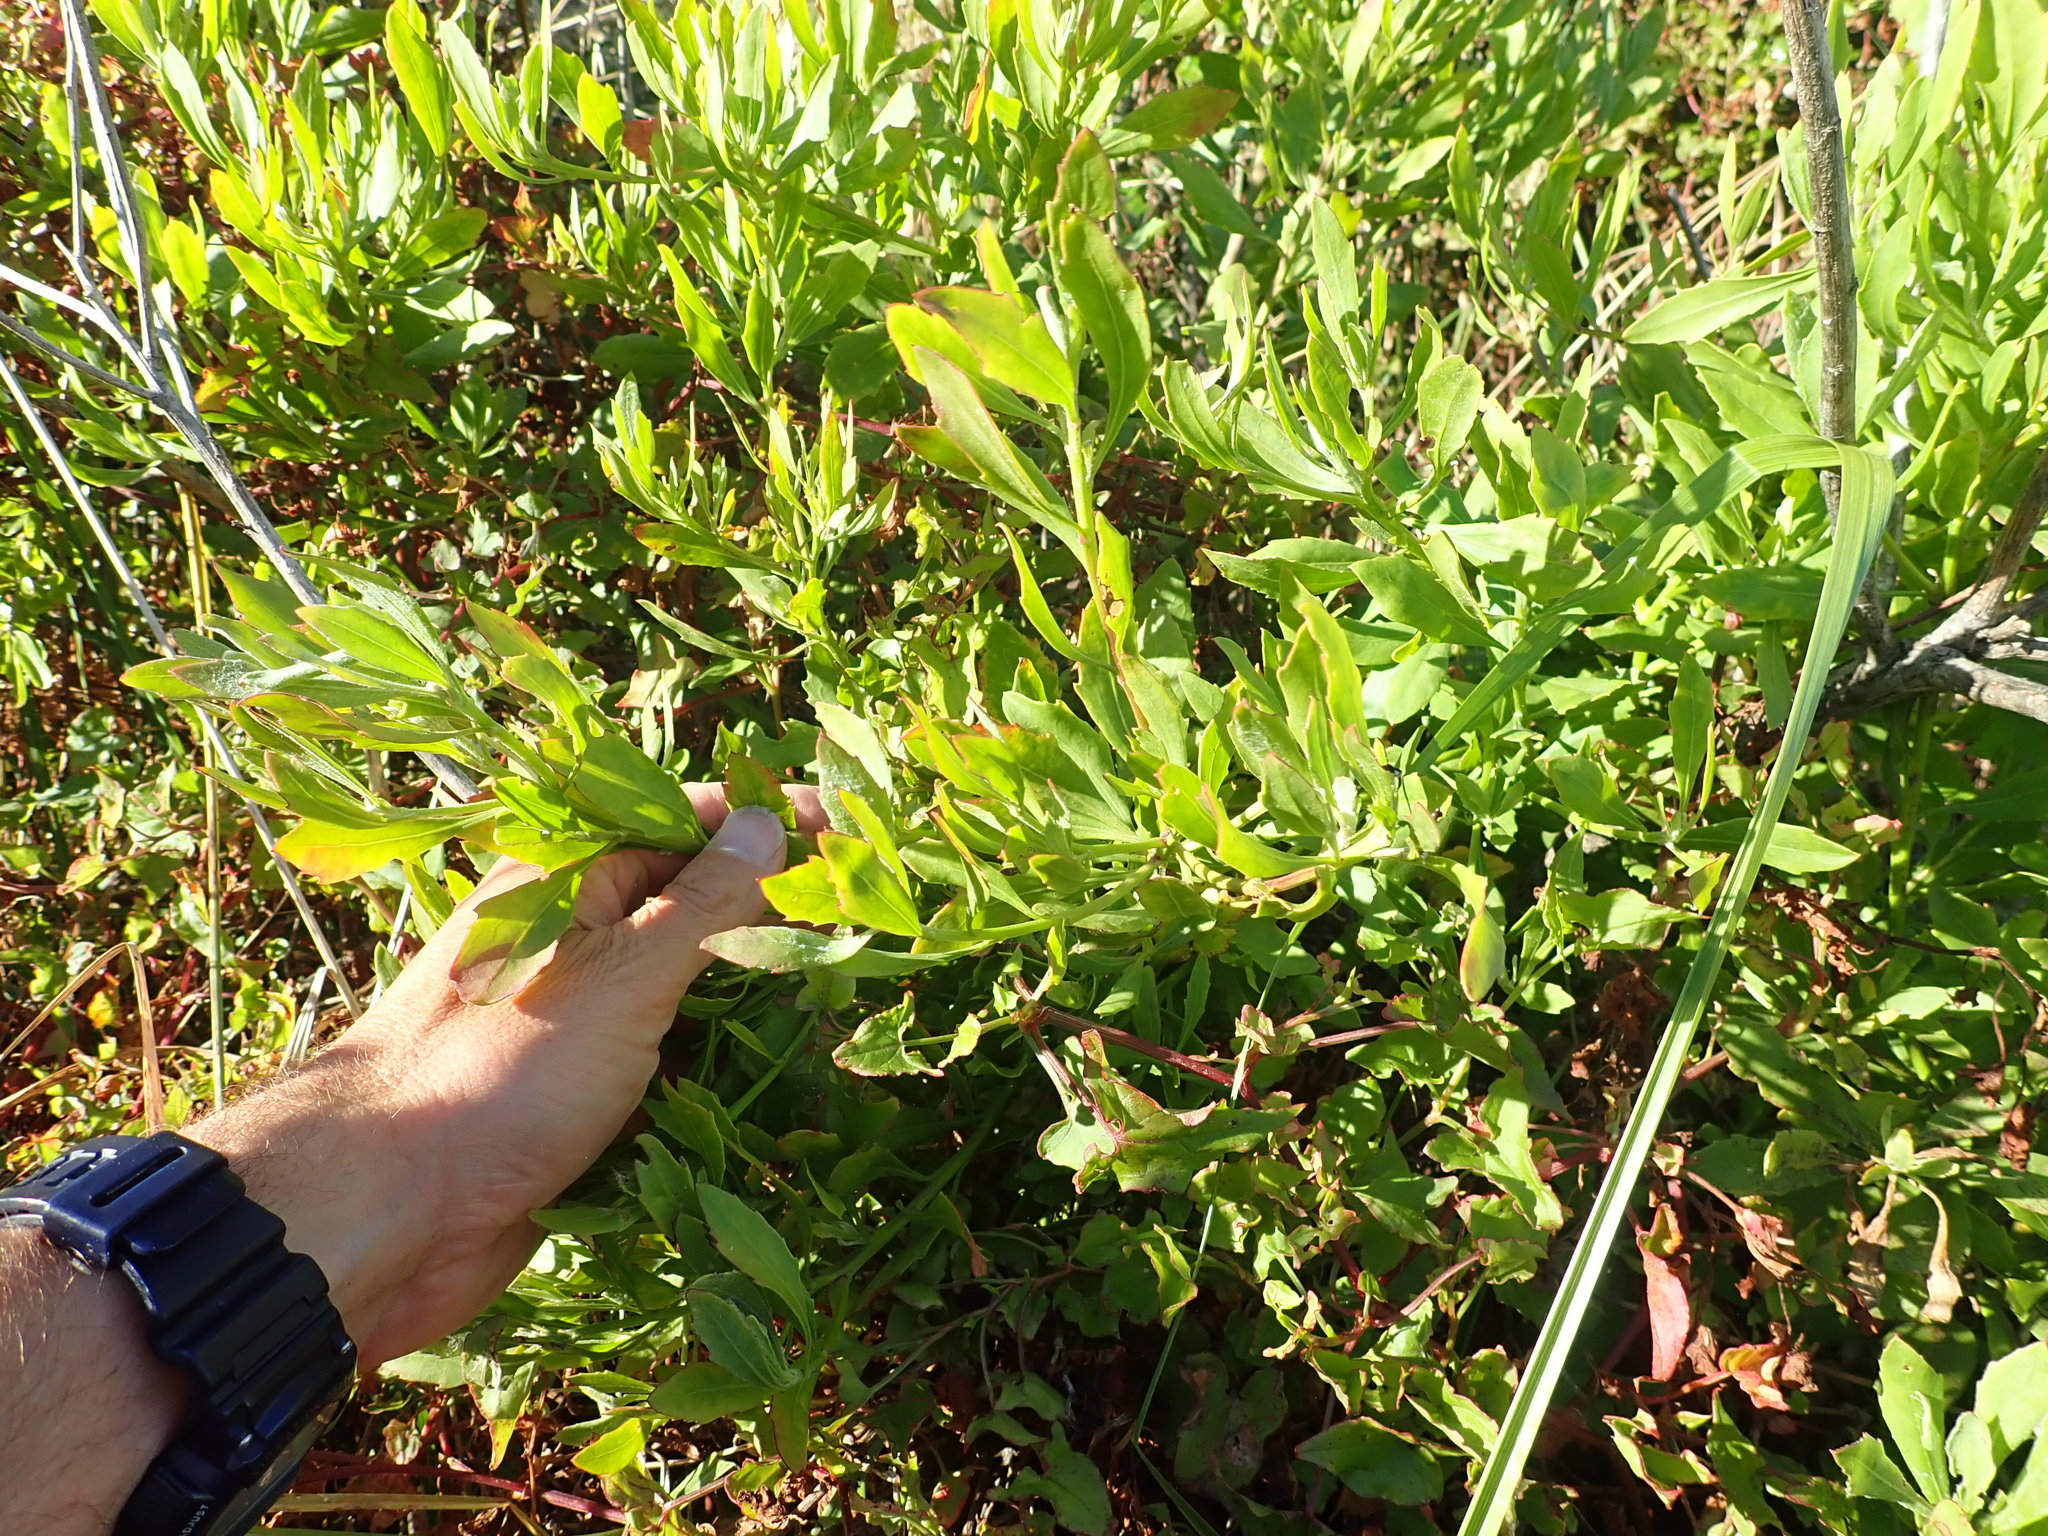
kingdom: Plantae
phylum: Tracheophyta
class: Magnoliopsida
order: Asterales
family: Asteraceae
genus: Osteospermum
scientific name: Osteospermum moniliferum
